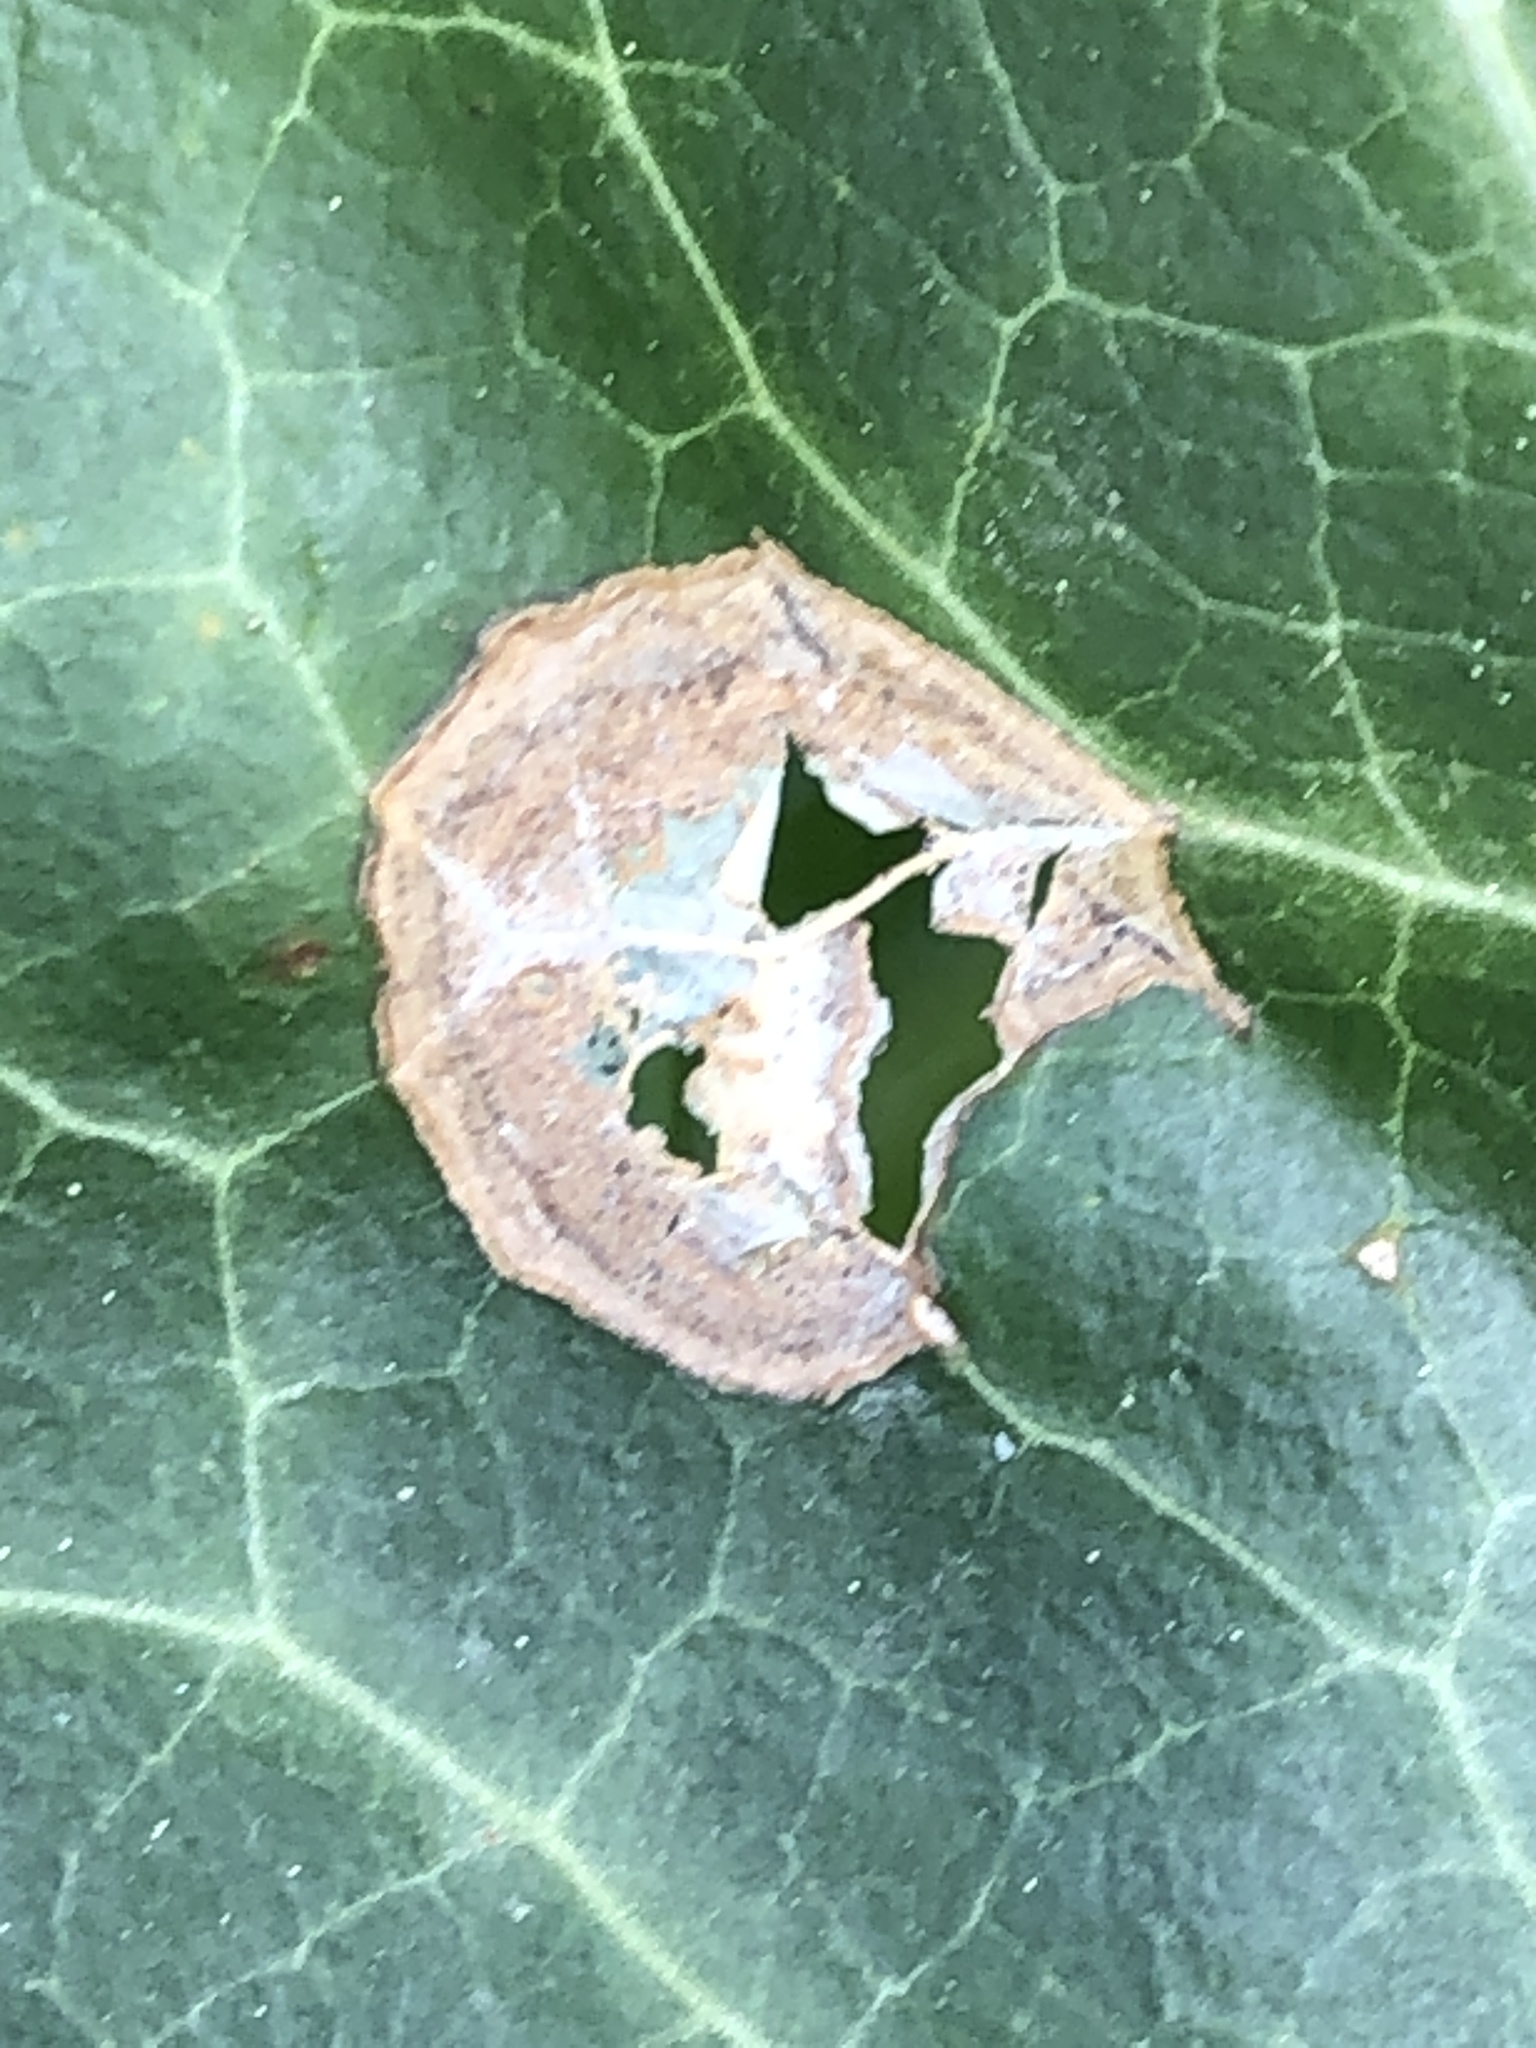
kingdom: Fungi
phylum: Ascomycota
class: Dothideomycetes
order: Pleosporales
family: Didymellaceae
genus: Boeremia
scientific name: Boeremia hedericola
